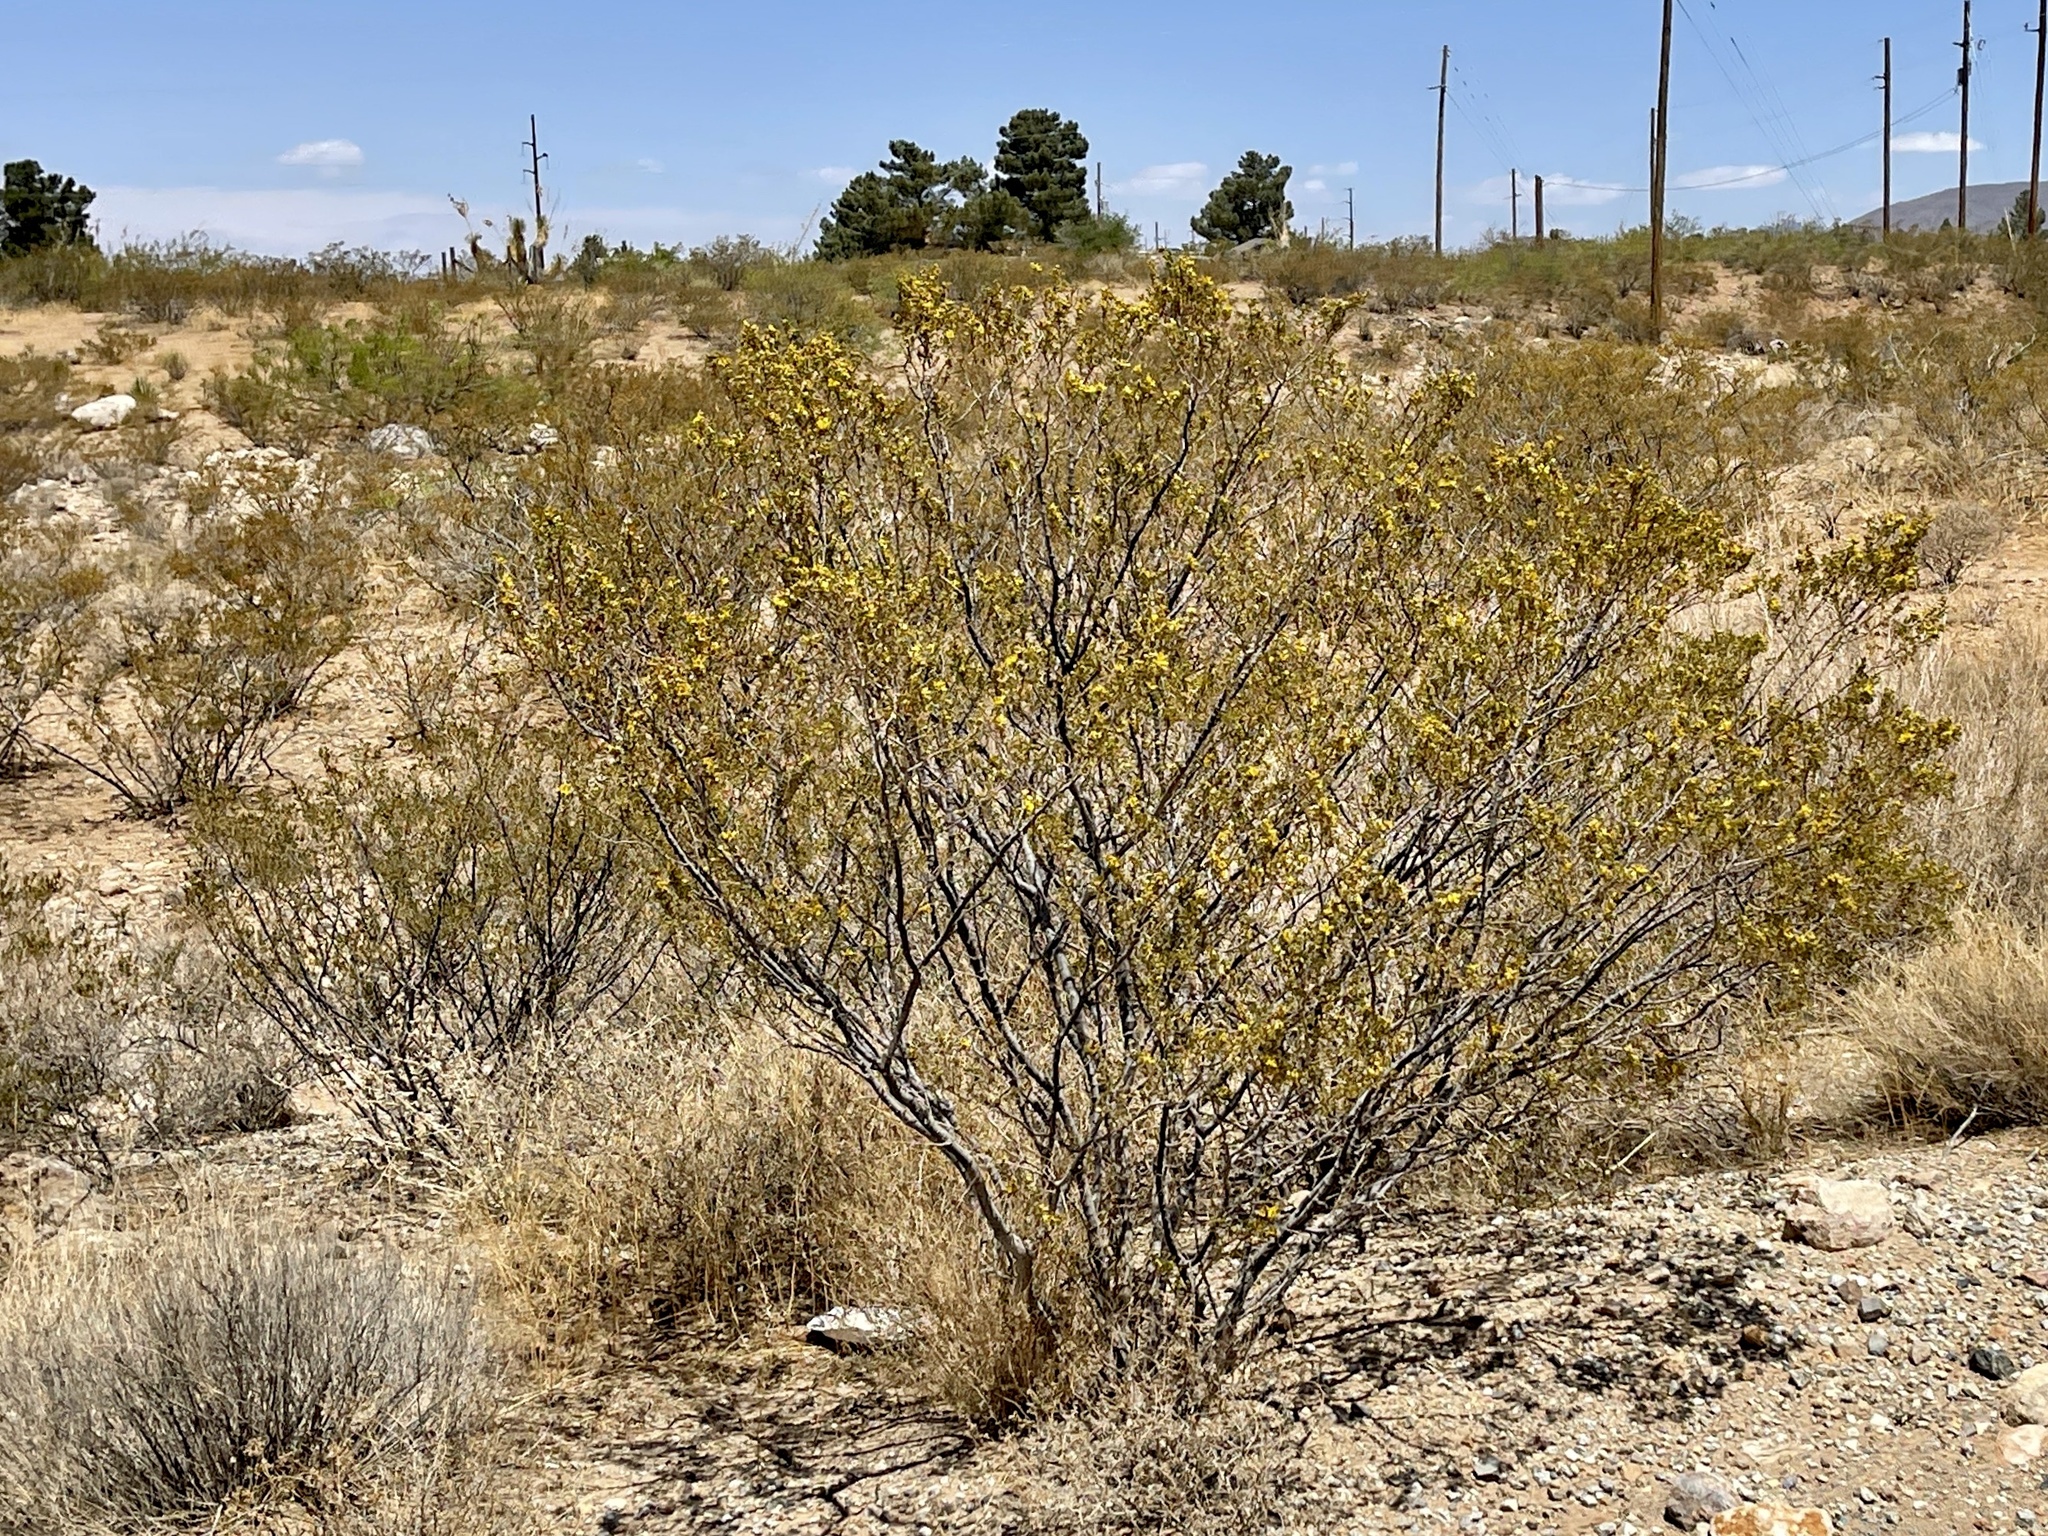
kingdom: Plantae
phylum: Tracheophyta
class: Magnoliopsida
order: Zygophyllales
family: Zygophyllaceae
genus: Larrea
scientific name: Larrea tridentata
